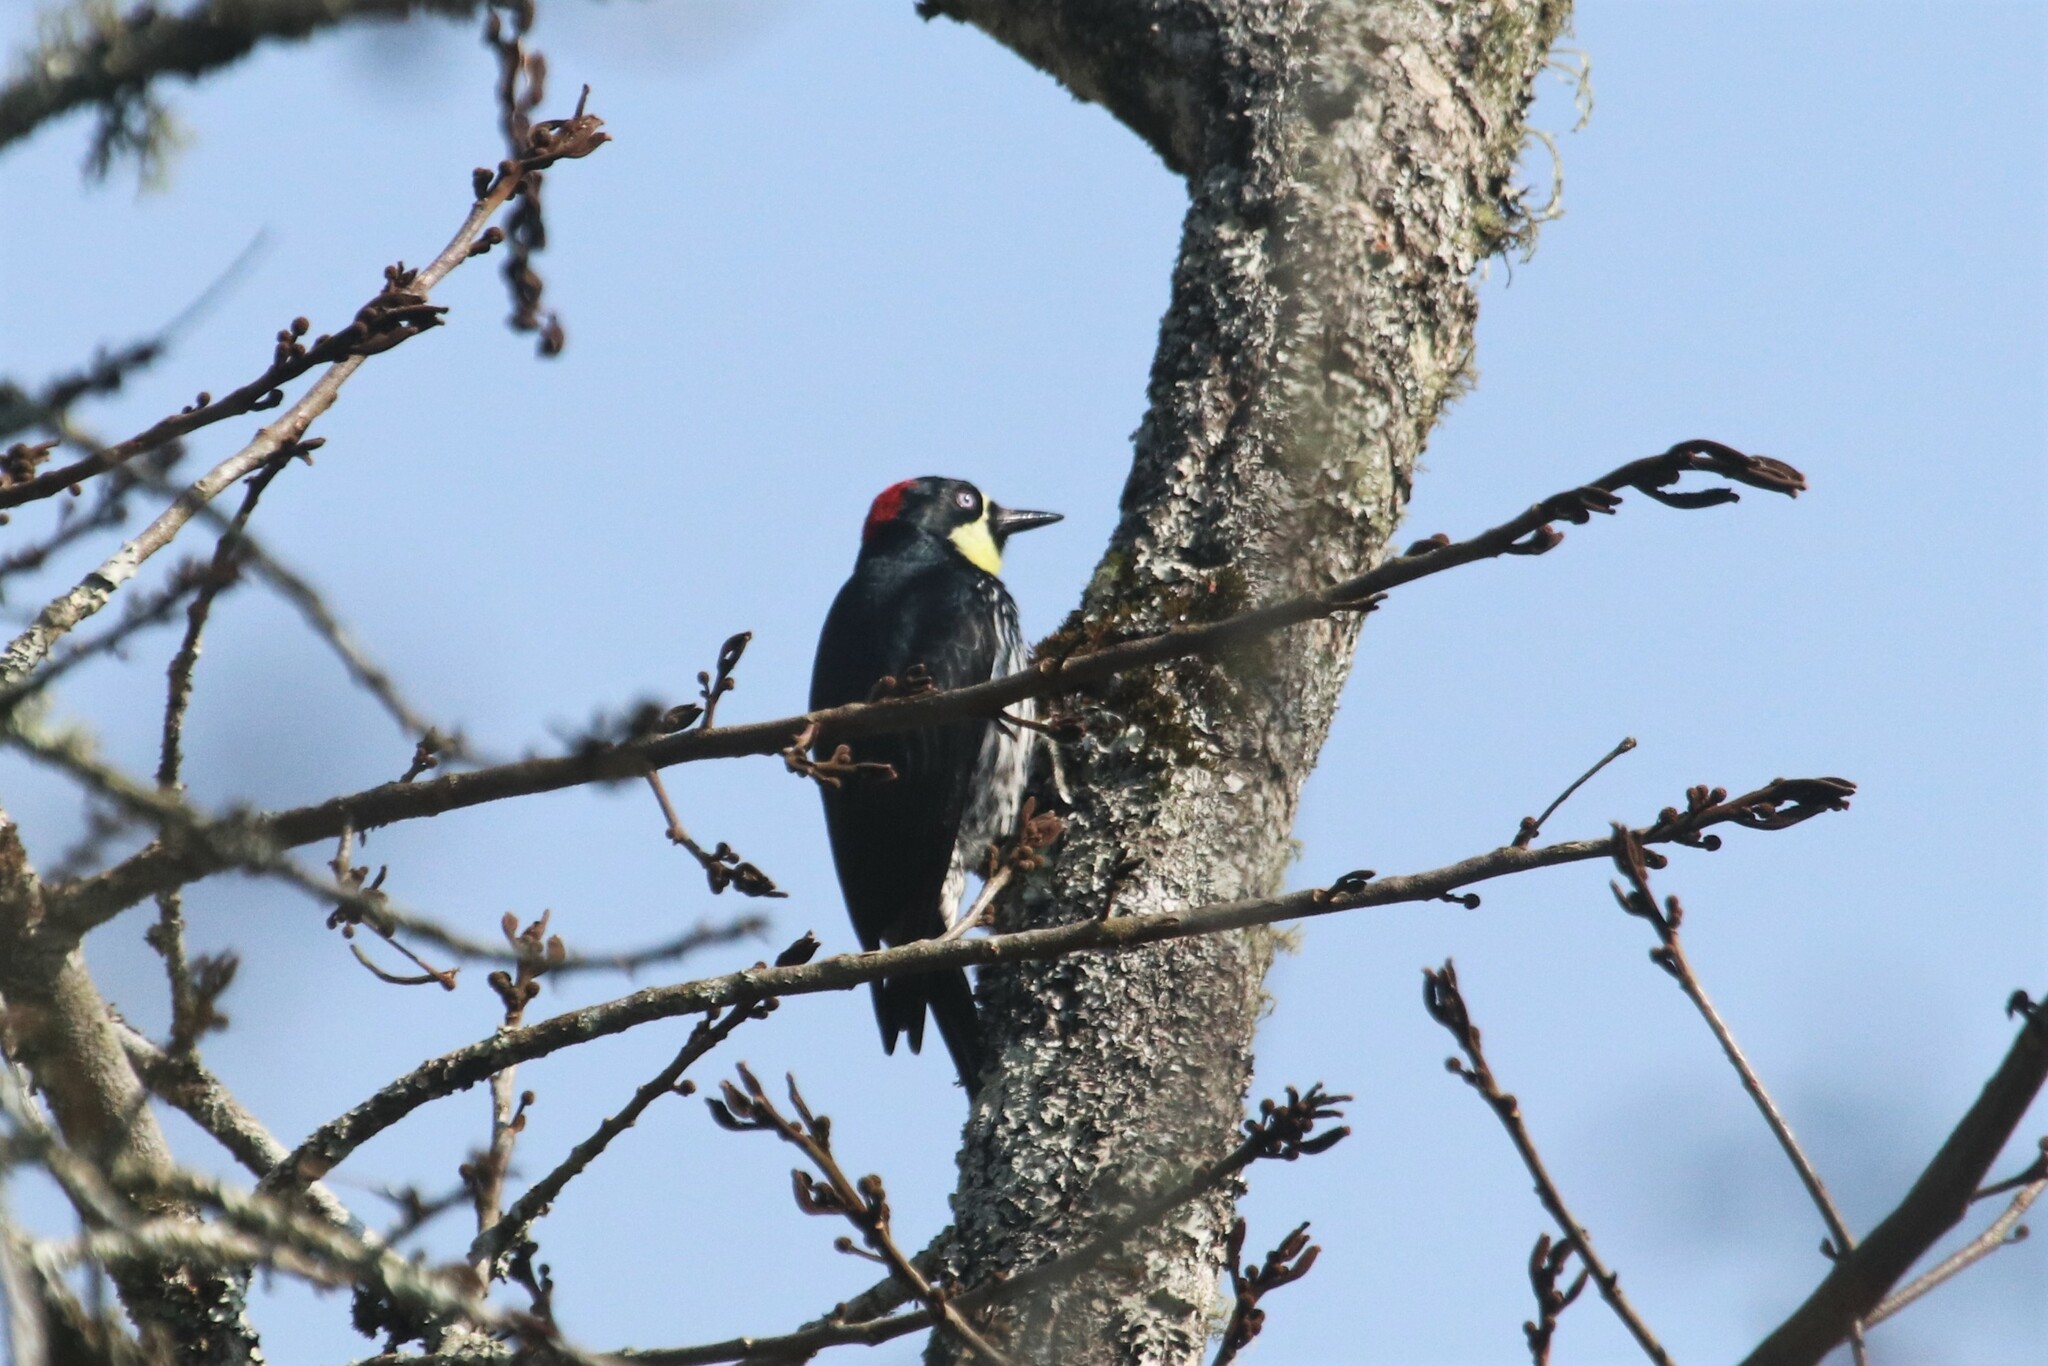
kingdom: Animalia
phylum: Chordata
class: Aves
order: Piciformes
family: Picidae
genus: Melanerpes
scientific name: Melanerpes formicivorus
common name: Acorn woodpecker
